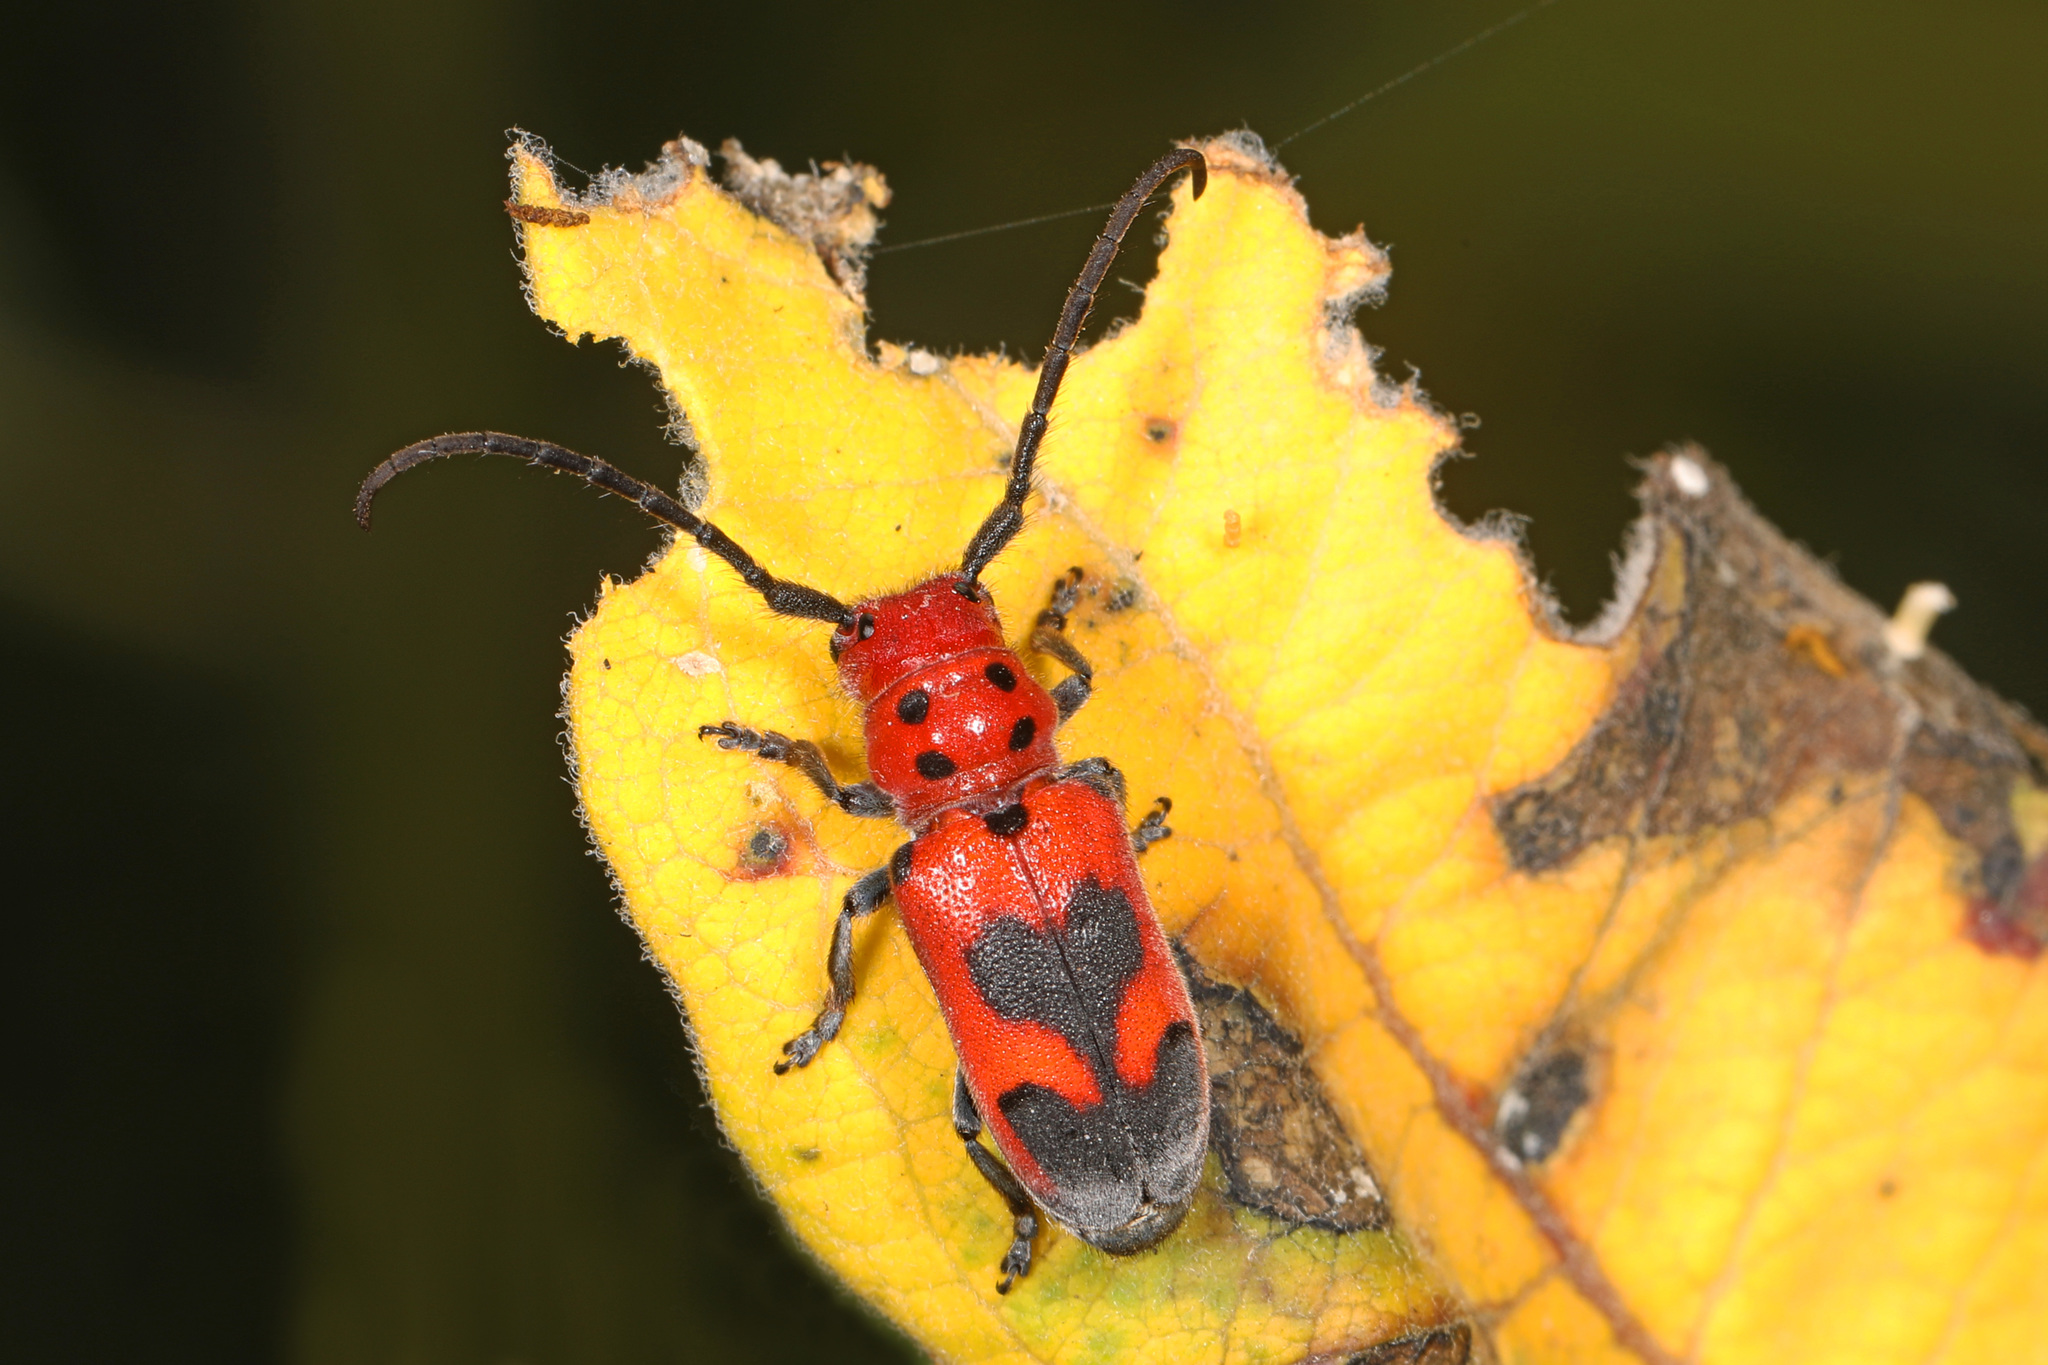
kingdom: Animalia
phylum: Arthropoda
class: Insecta
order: Coleoptera
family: Cerambycidae
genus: Tetraopes
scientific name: Tetraopes melanurus
